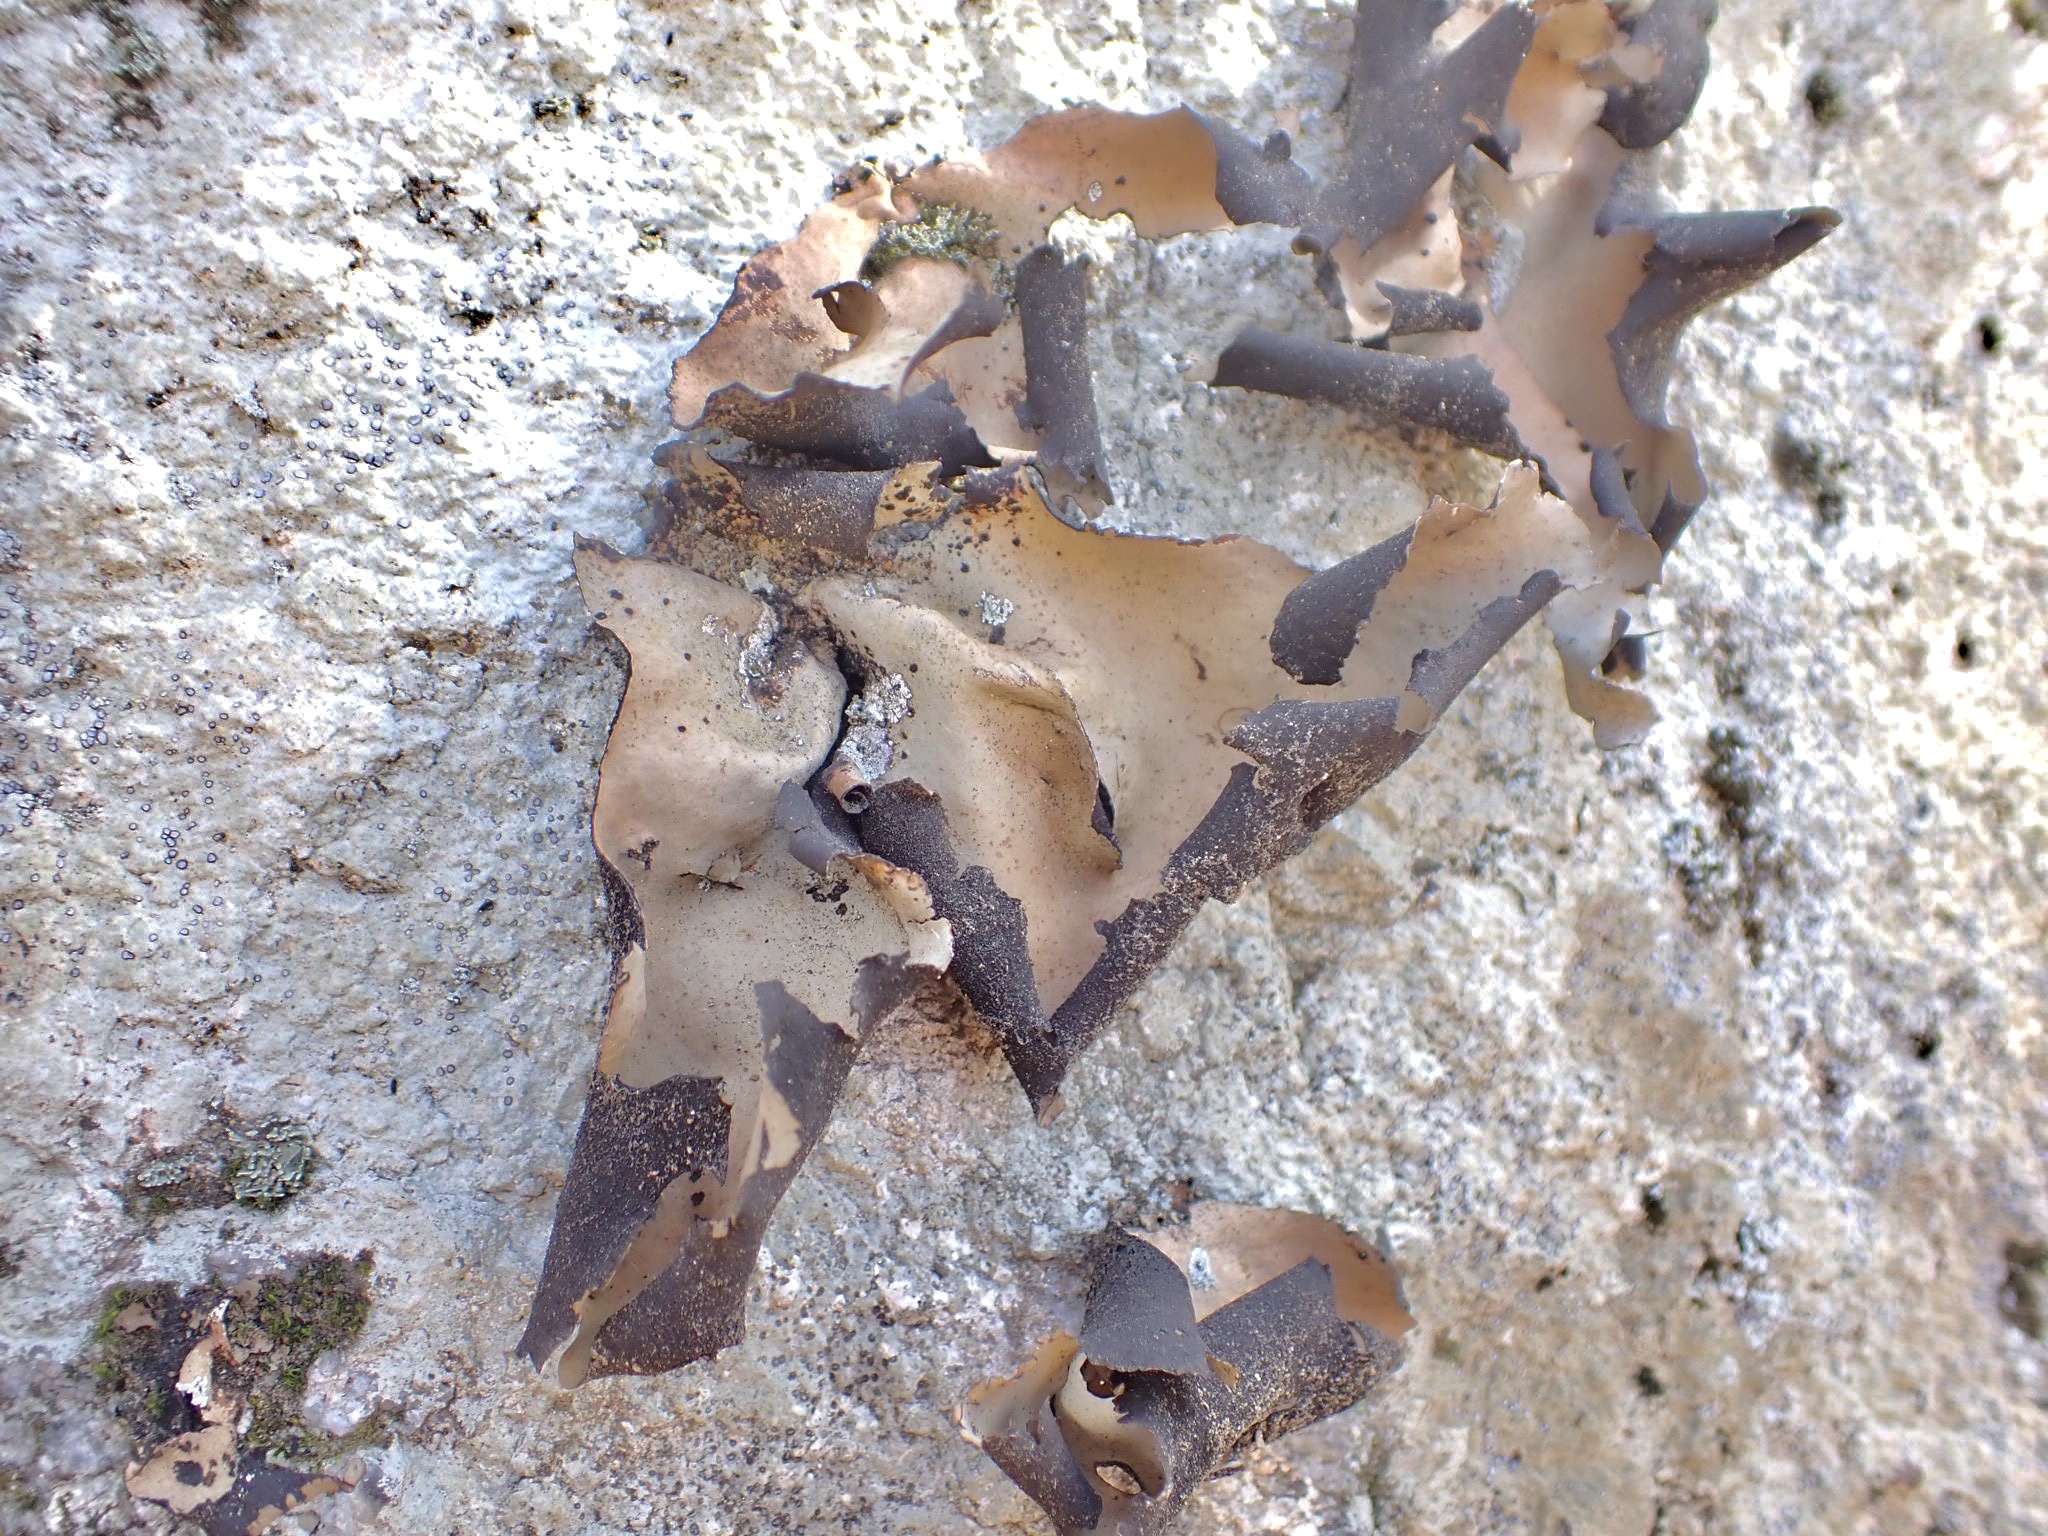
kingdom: Fungi
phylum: Ascomycota
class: Lecanoromycetes
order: Umbilicariales
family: Umbilicariaceae
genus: Umbilicaria
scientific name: Umbilicaria mammulata
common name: Smooth rock tripe
